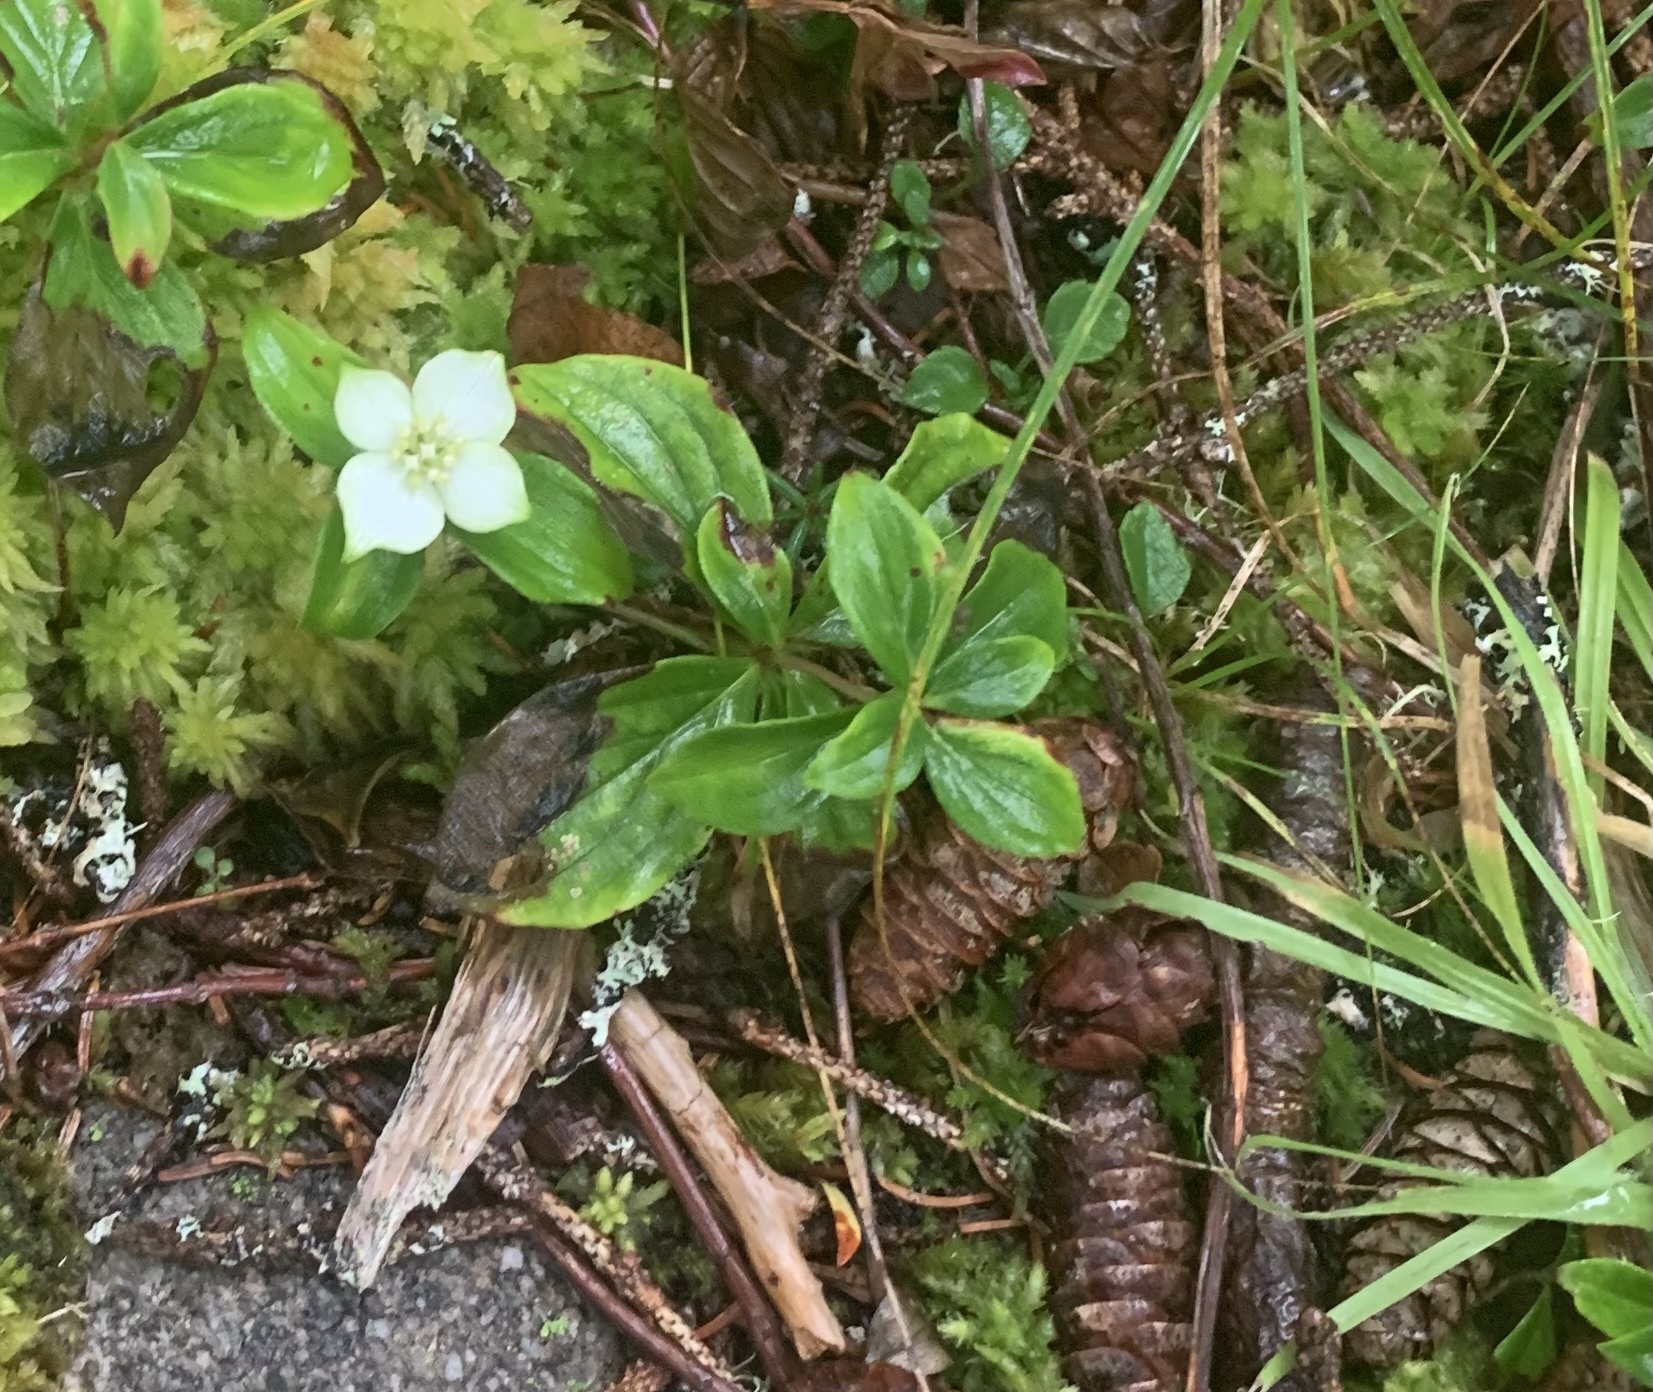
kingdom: Plantae
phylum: Tracheophyta
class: Magnoliopsida
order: Cornales
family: Cornaceae
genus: Cornus
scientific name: Cornus canadensis
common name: Creeping dogwood
